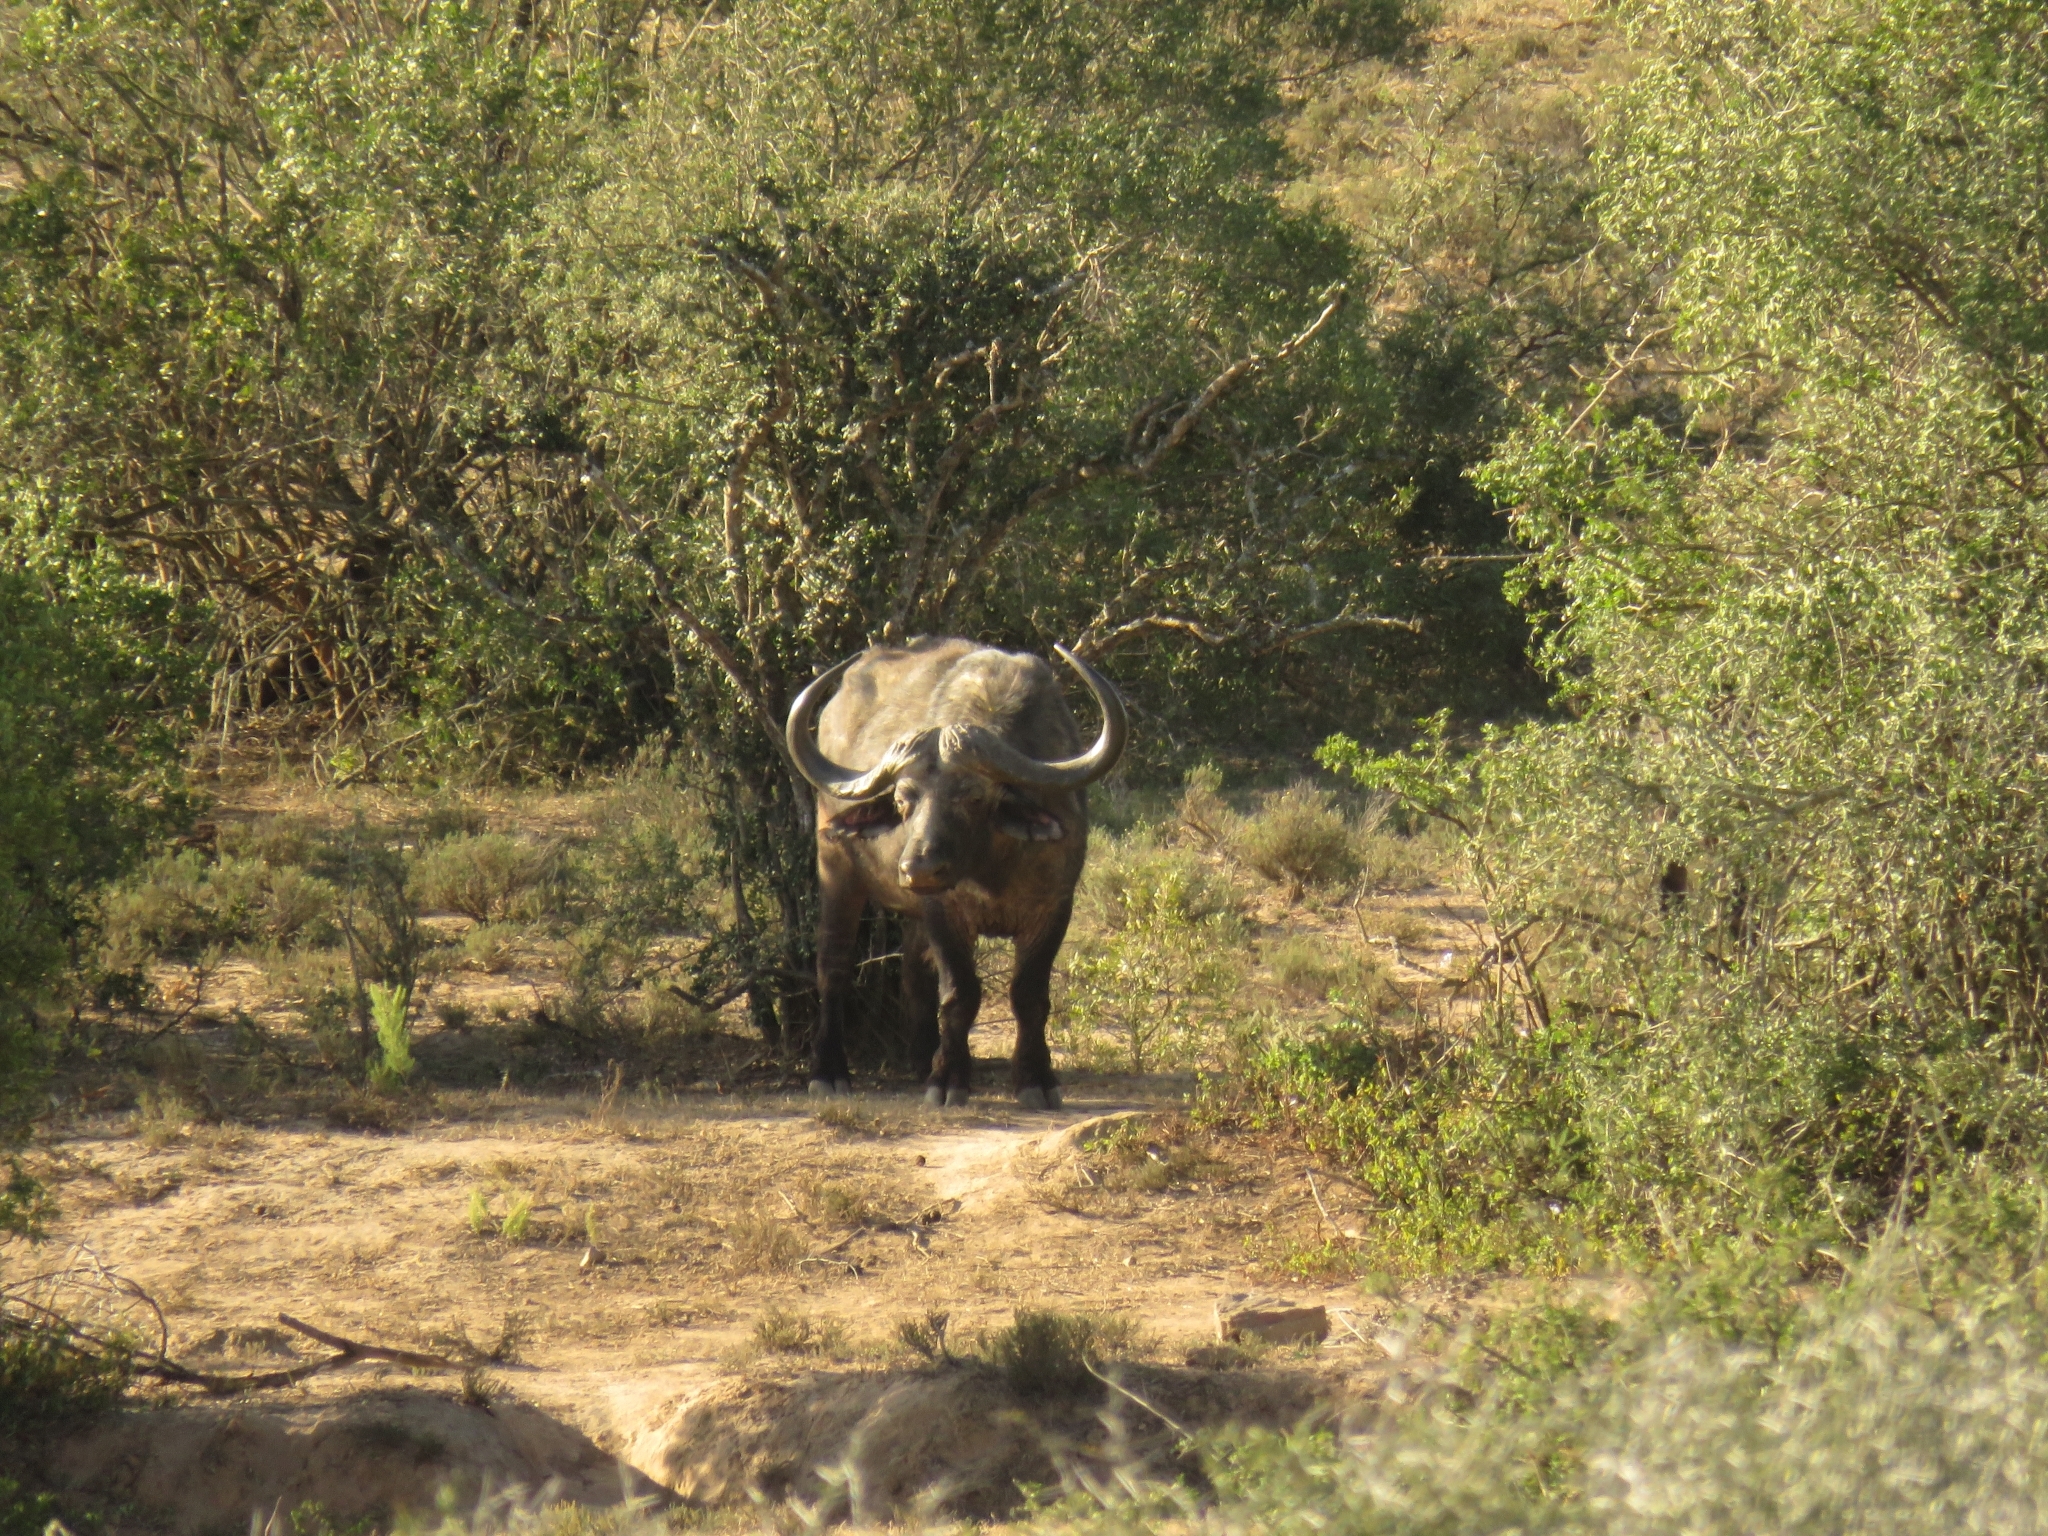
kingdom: Animalia
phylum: Chordata
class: Mammalia
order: Artiodactyla
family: Bovidae
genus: Syncerus
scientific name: Syncerus caffer
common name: African buffalo
